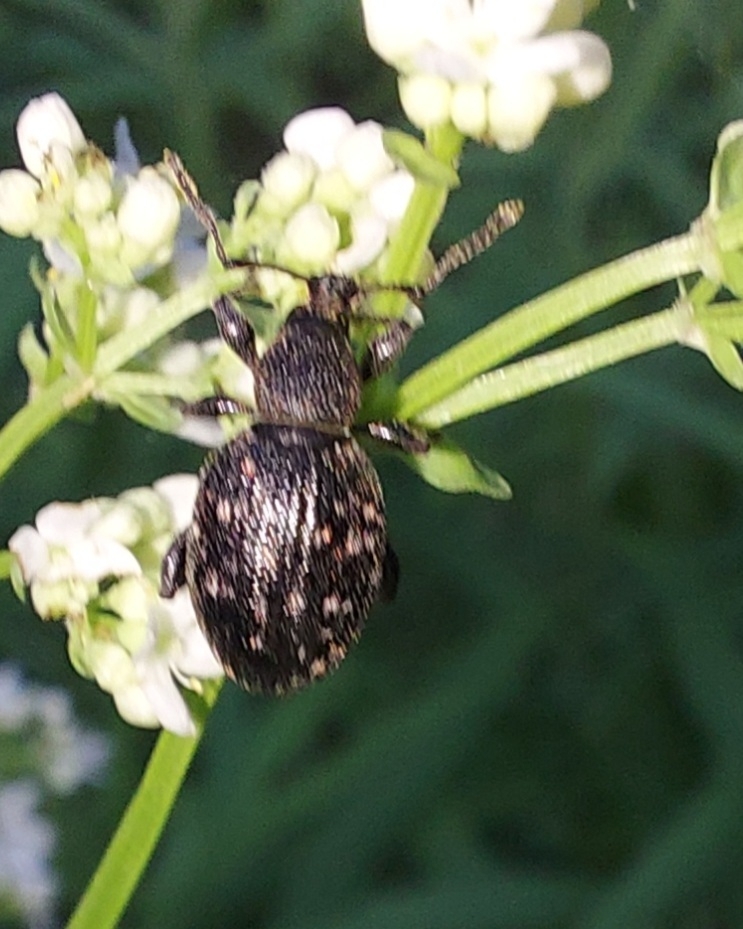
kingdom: Animalia
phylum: Arthropoda
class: Insecta
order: Coleoptera
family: Curculionidae
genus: Otiorhynchus
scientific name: Otiorhynchus tristis
